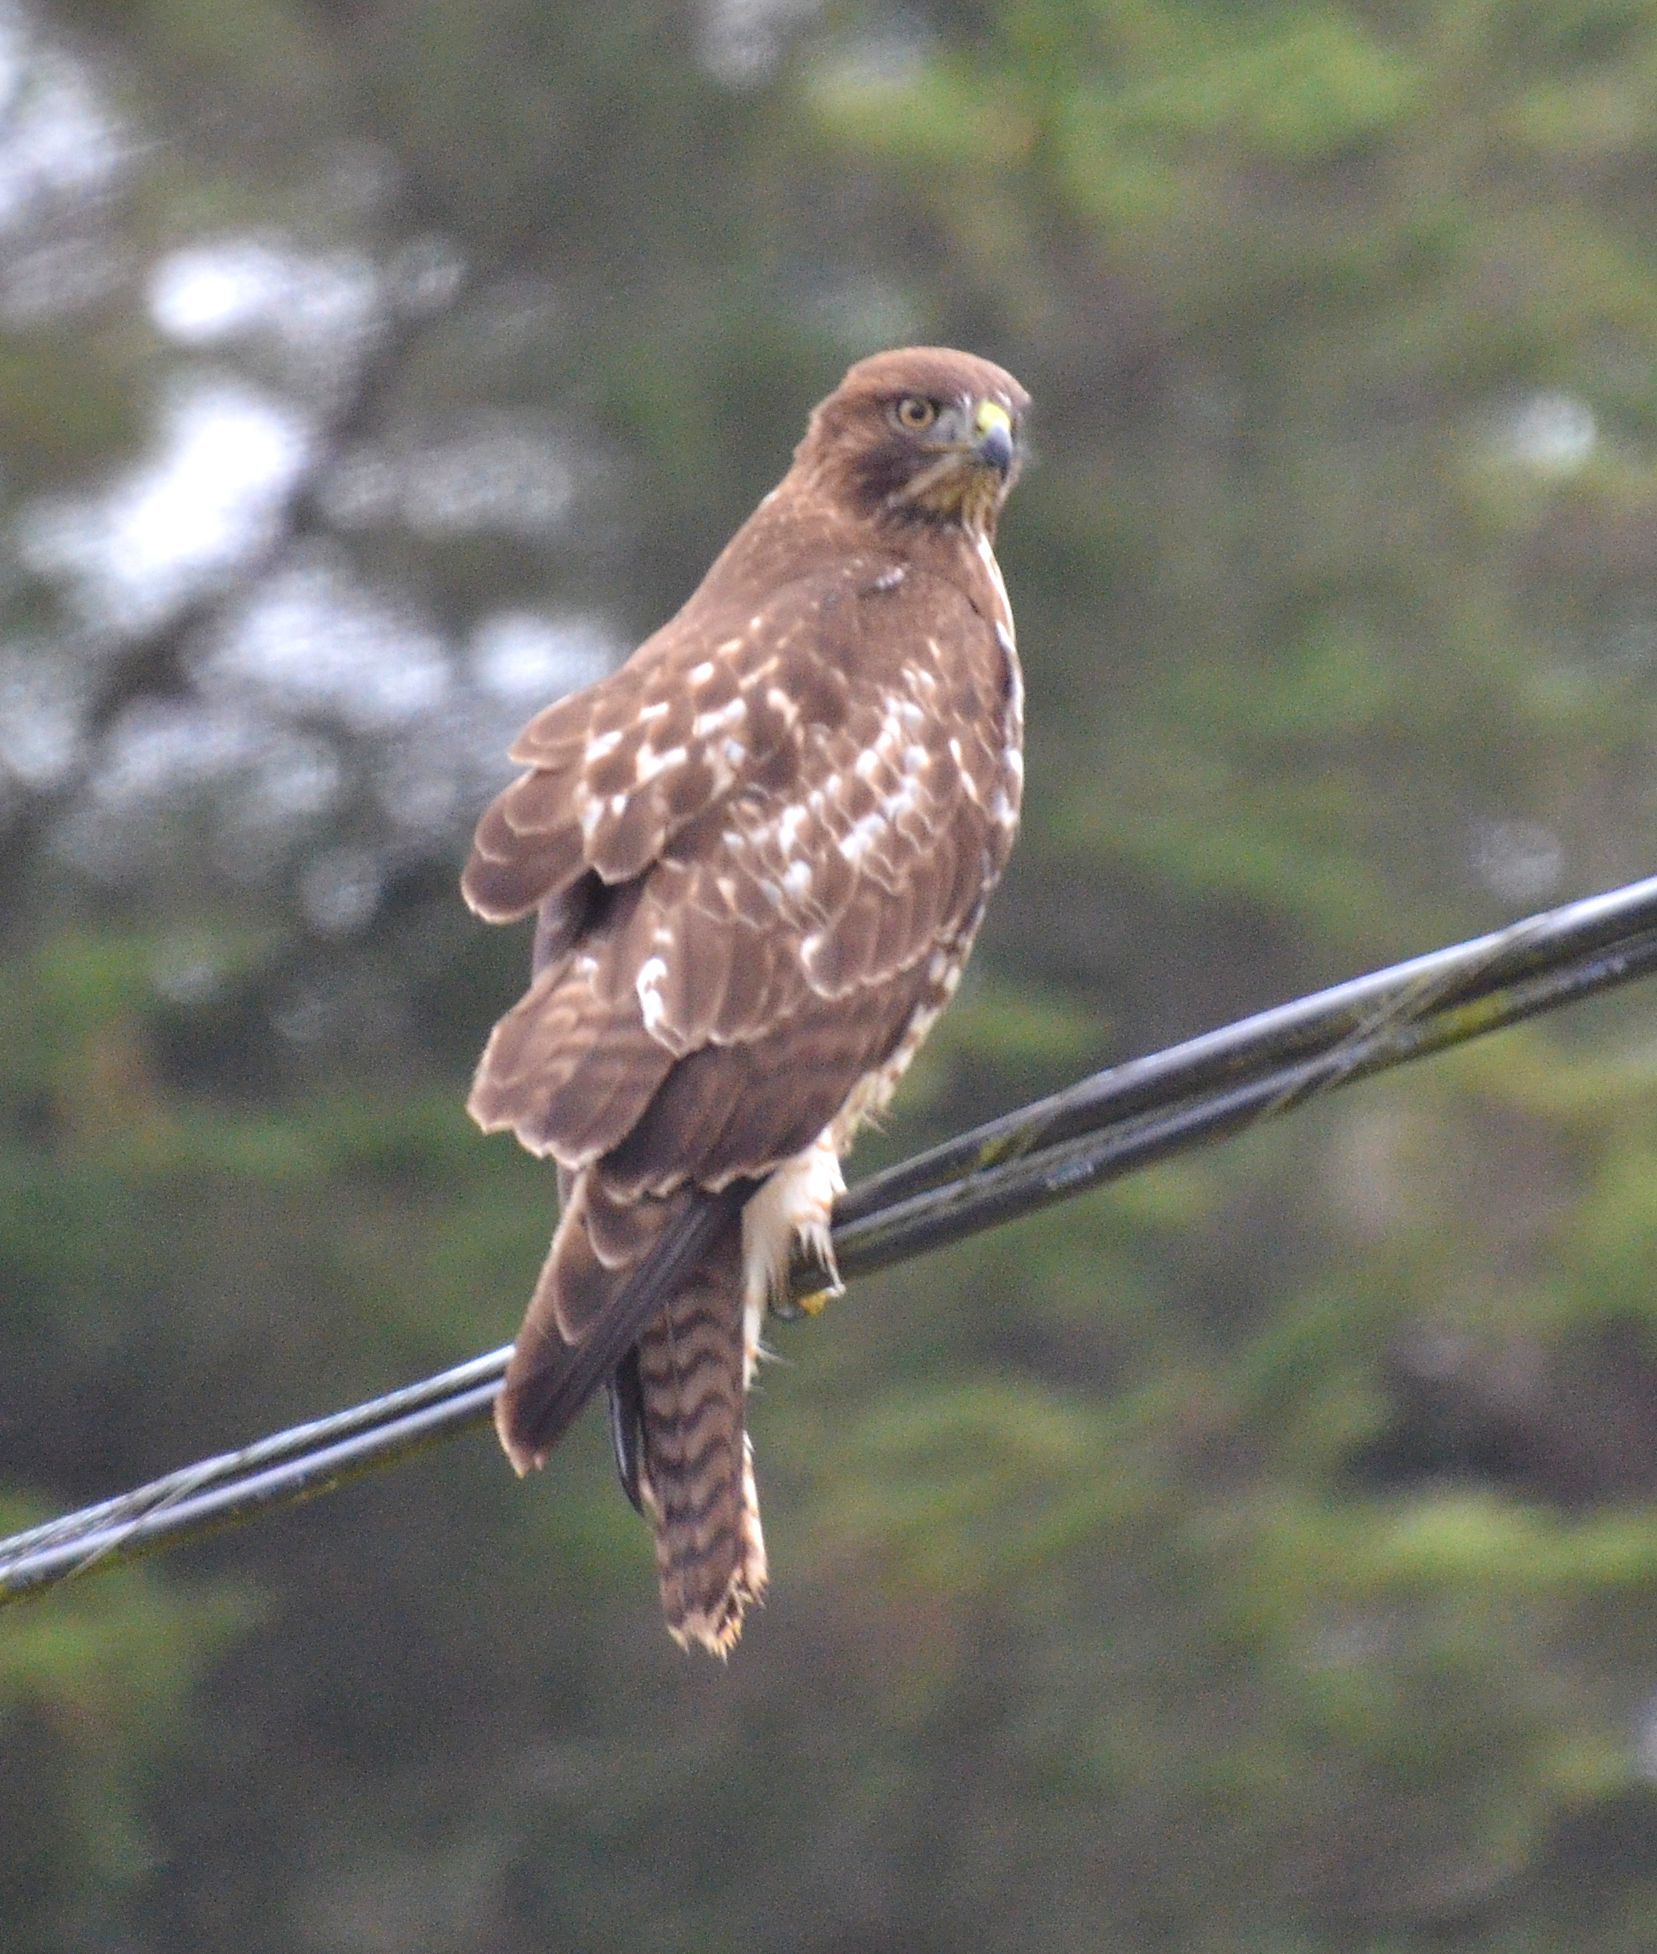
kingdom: Animalia
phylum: Chordata
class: Aves
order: Accipitriformes
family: Accipitridae
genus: Buteo
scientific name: Buteo jamaicensis
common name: Red-tailed hawk
